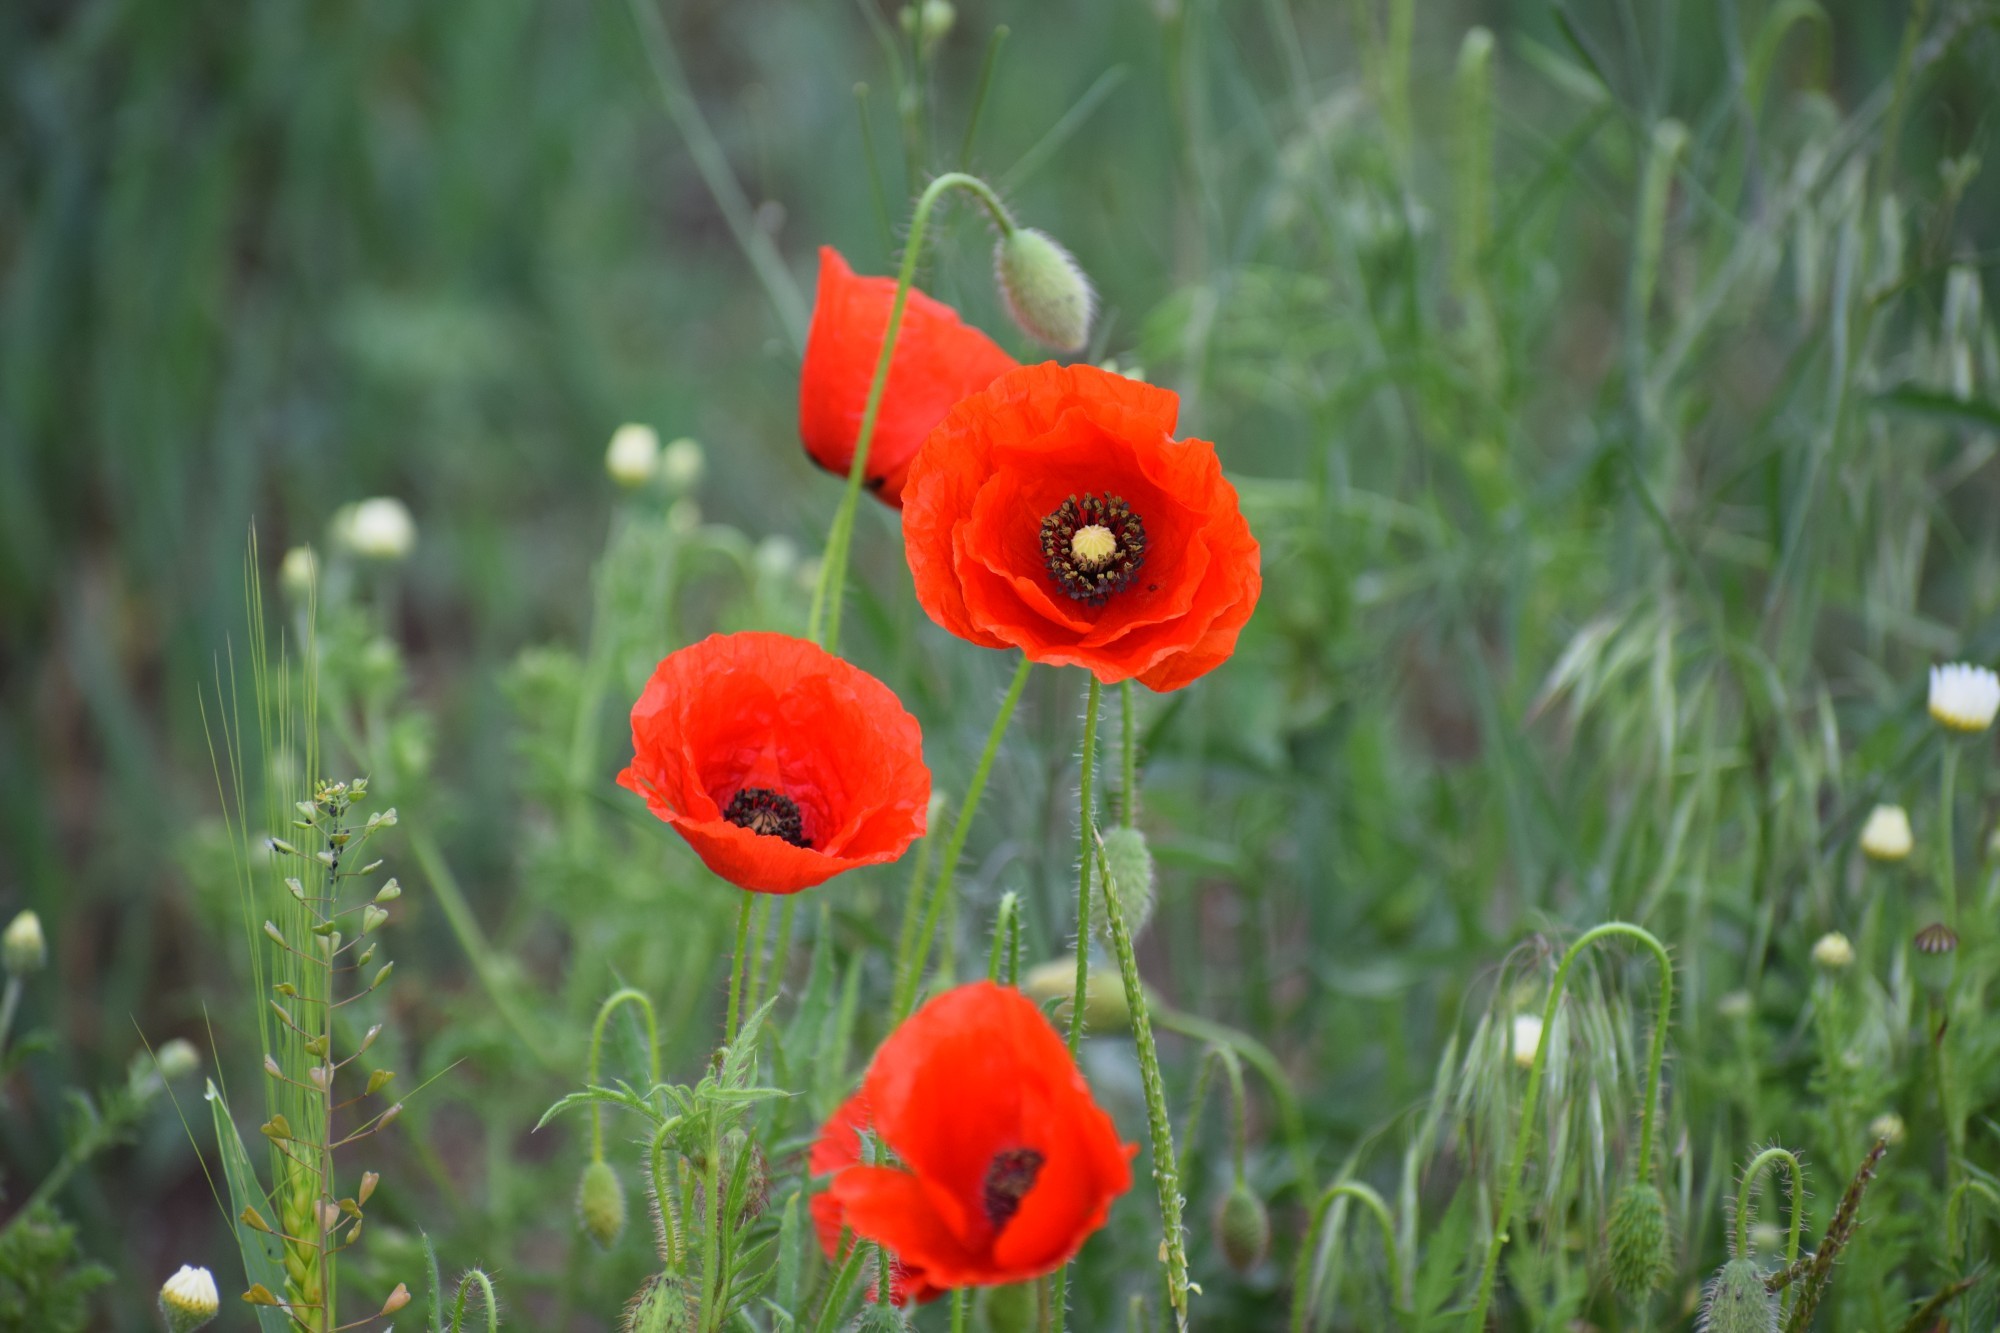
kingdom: Plantae
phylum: Tracheophyta
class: Magnoliopsida
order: Ranunculales
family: Papaveraceae
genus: Papaver
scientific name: Papaver rhoeas
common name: Corn poppy
